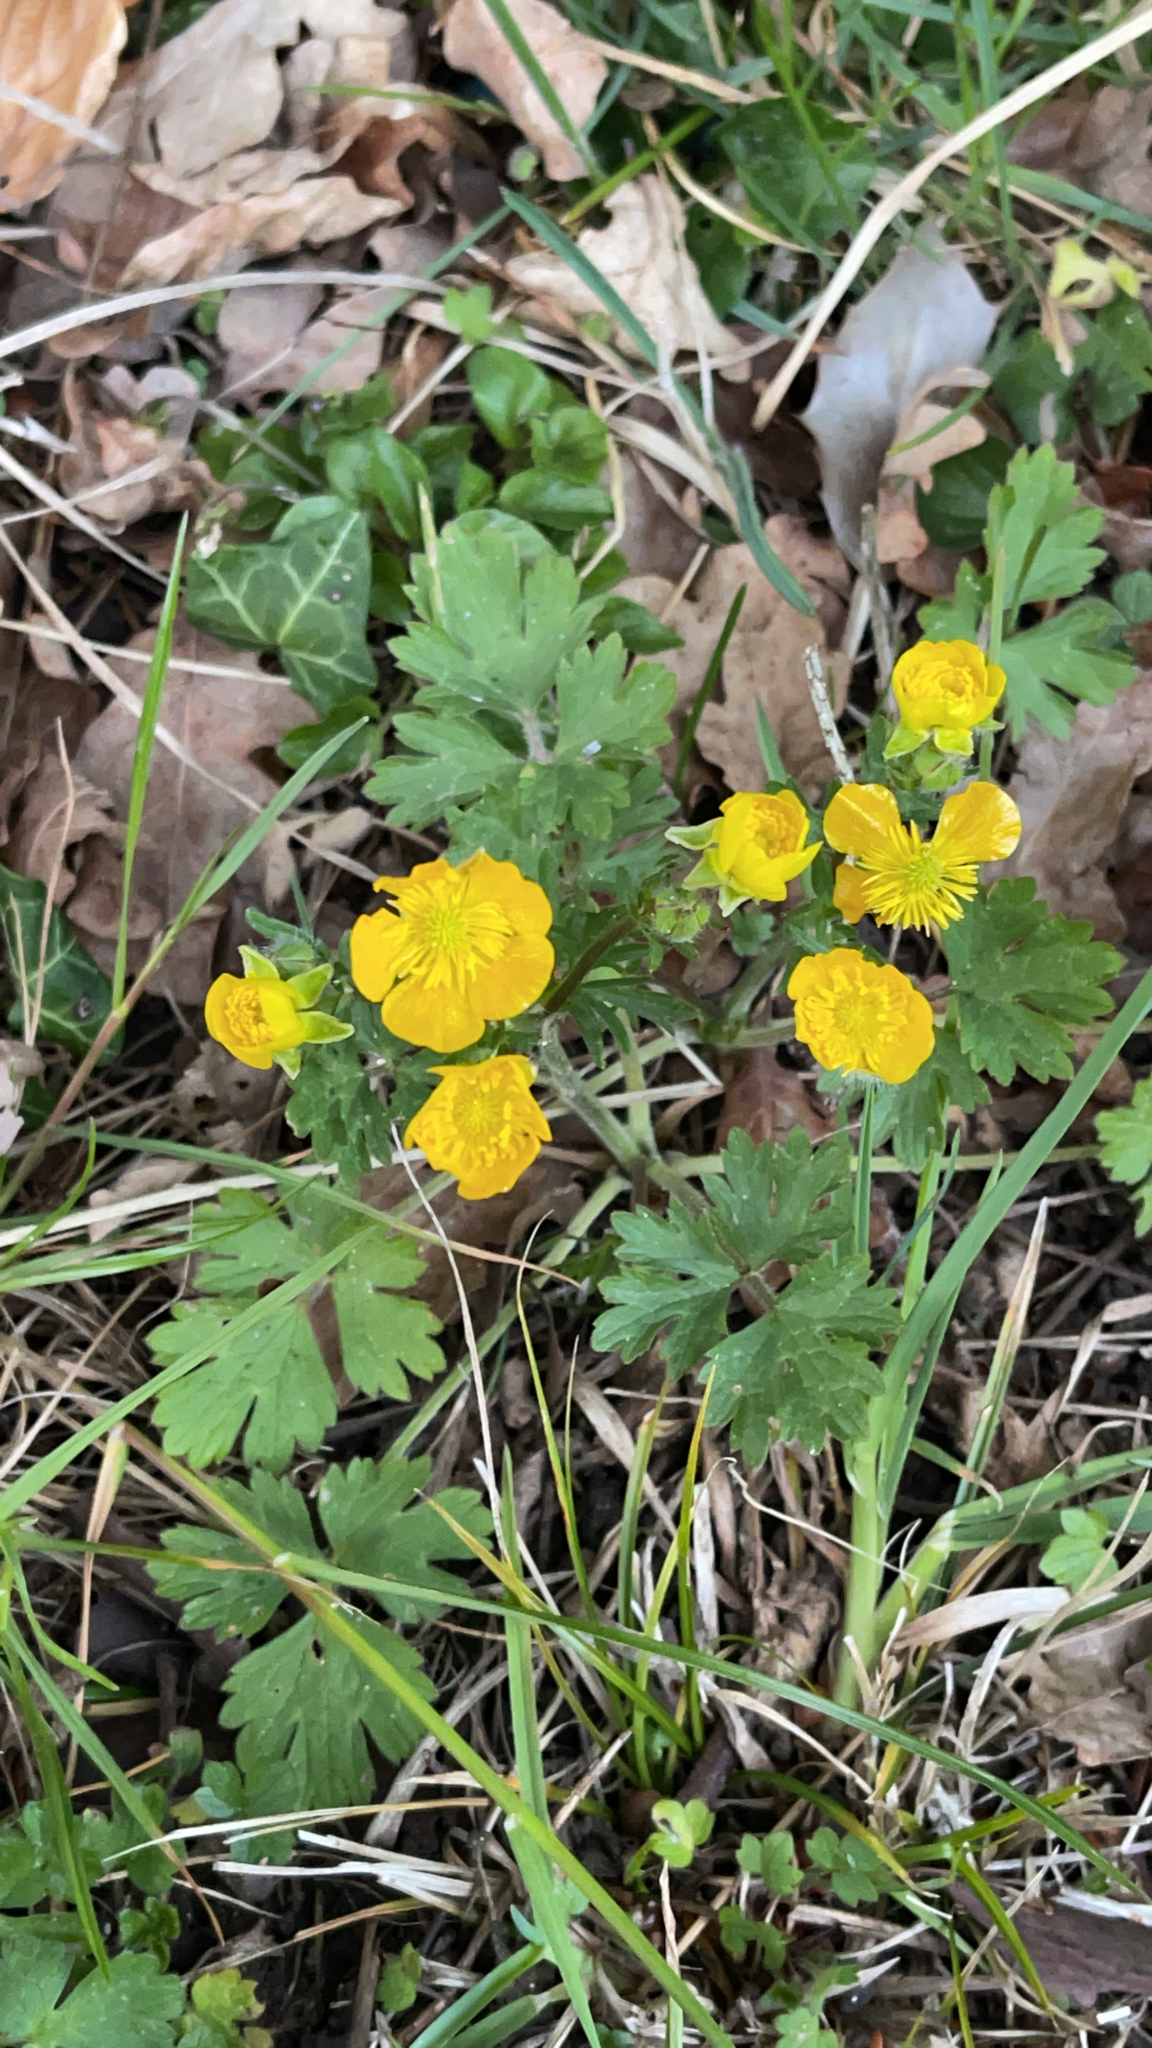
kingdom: Plantae
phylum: Tracheophyta
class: Magnoliopsida
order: Ranunculales
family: Ranunculaceae
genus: Ranunculus
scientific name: Ranunculus bulbosus
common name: Bulbous buttercup
